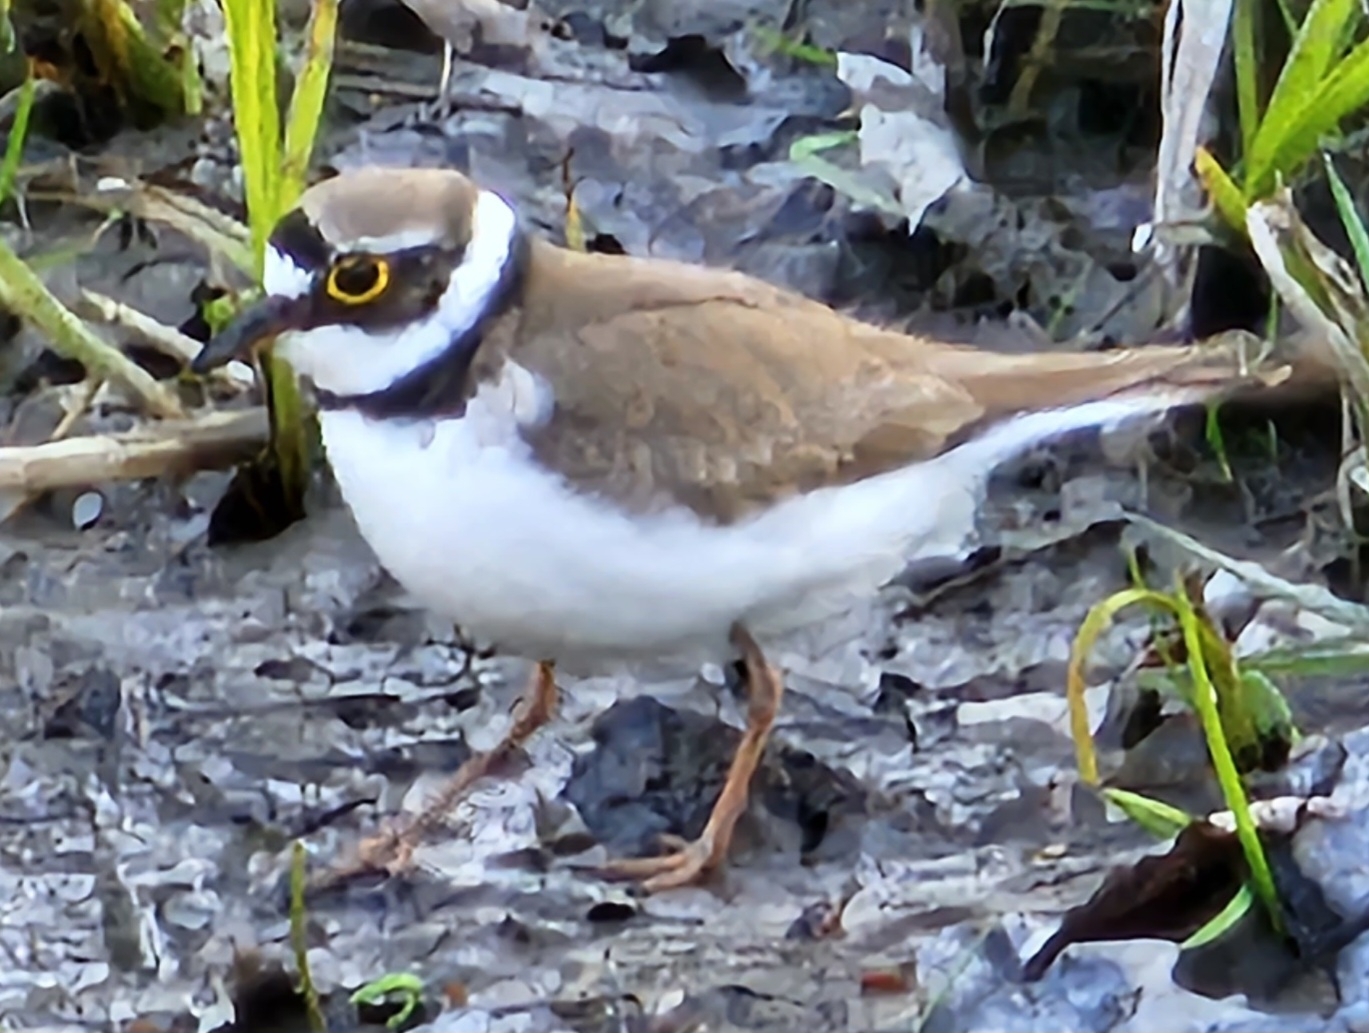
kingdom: Animalia
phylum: Chordata
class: Aves
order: Charadriiformes
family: Charadriidae
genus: Charadrius
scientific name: Charadrius dubius
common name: Little ringed plover
